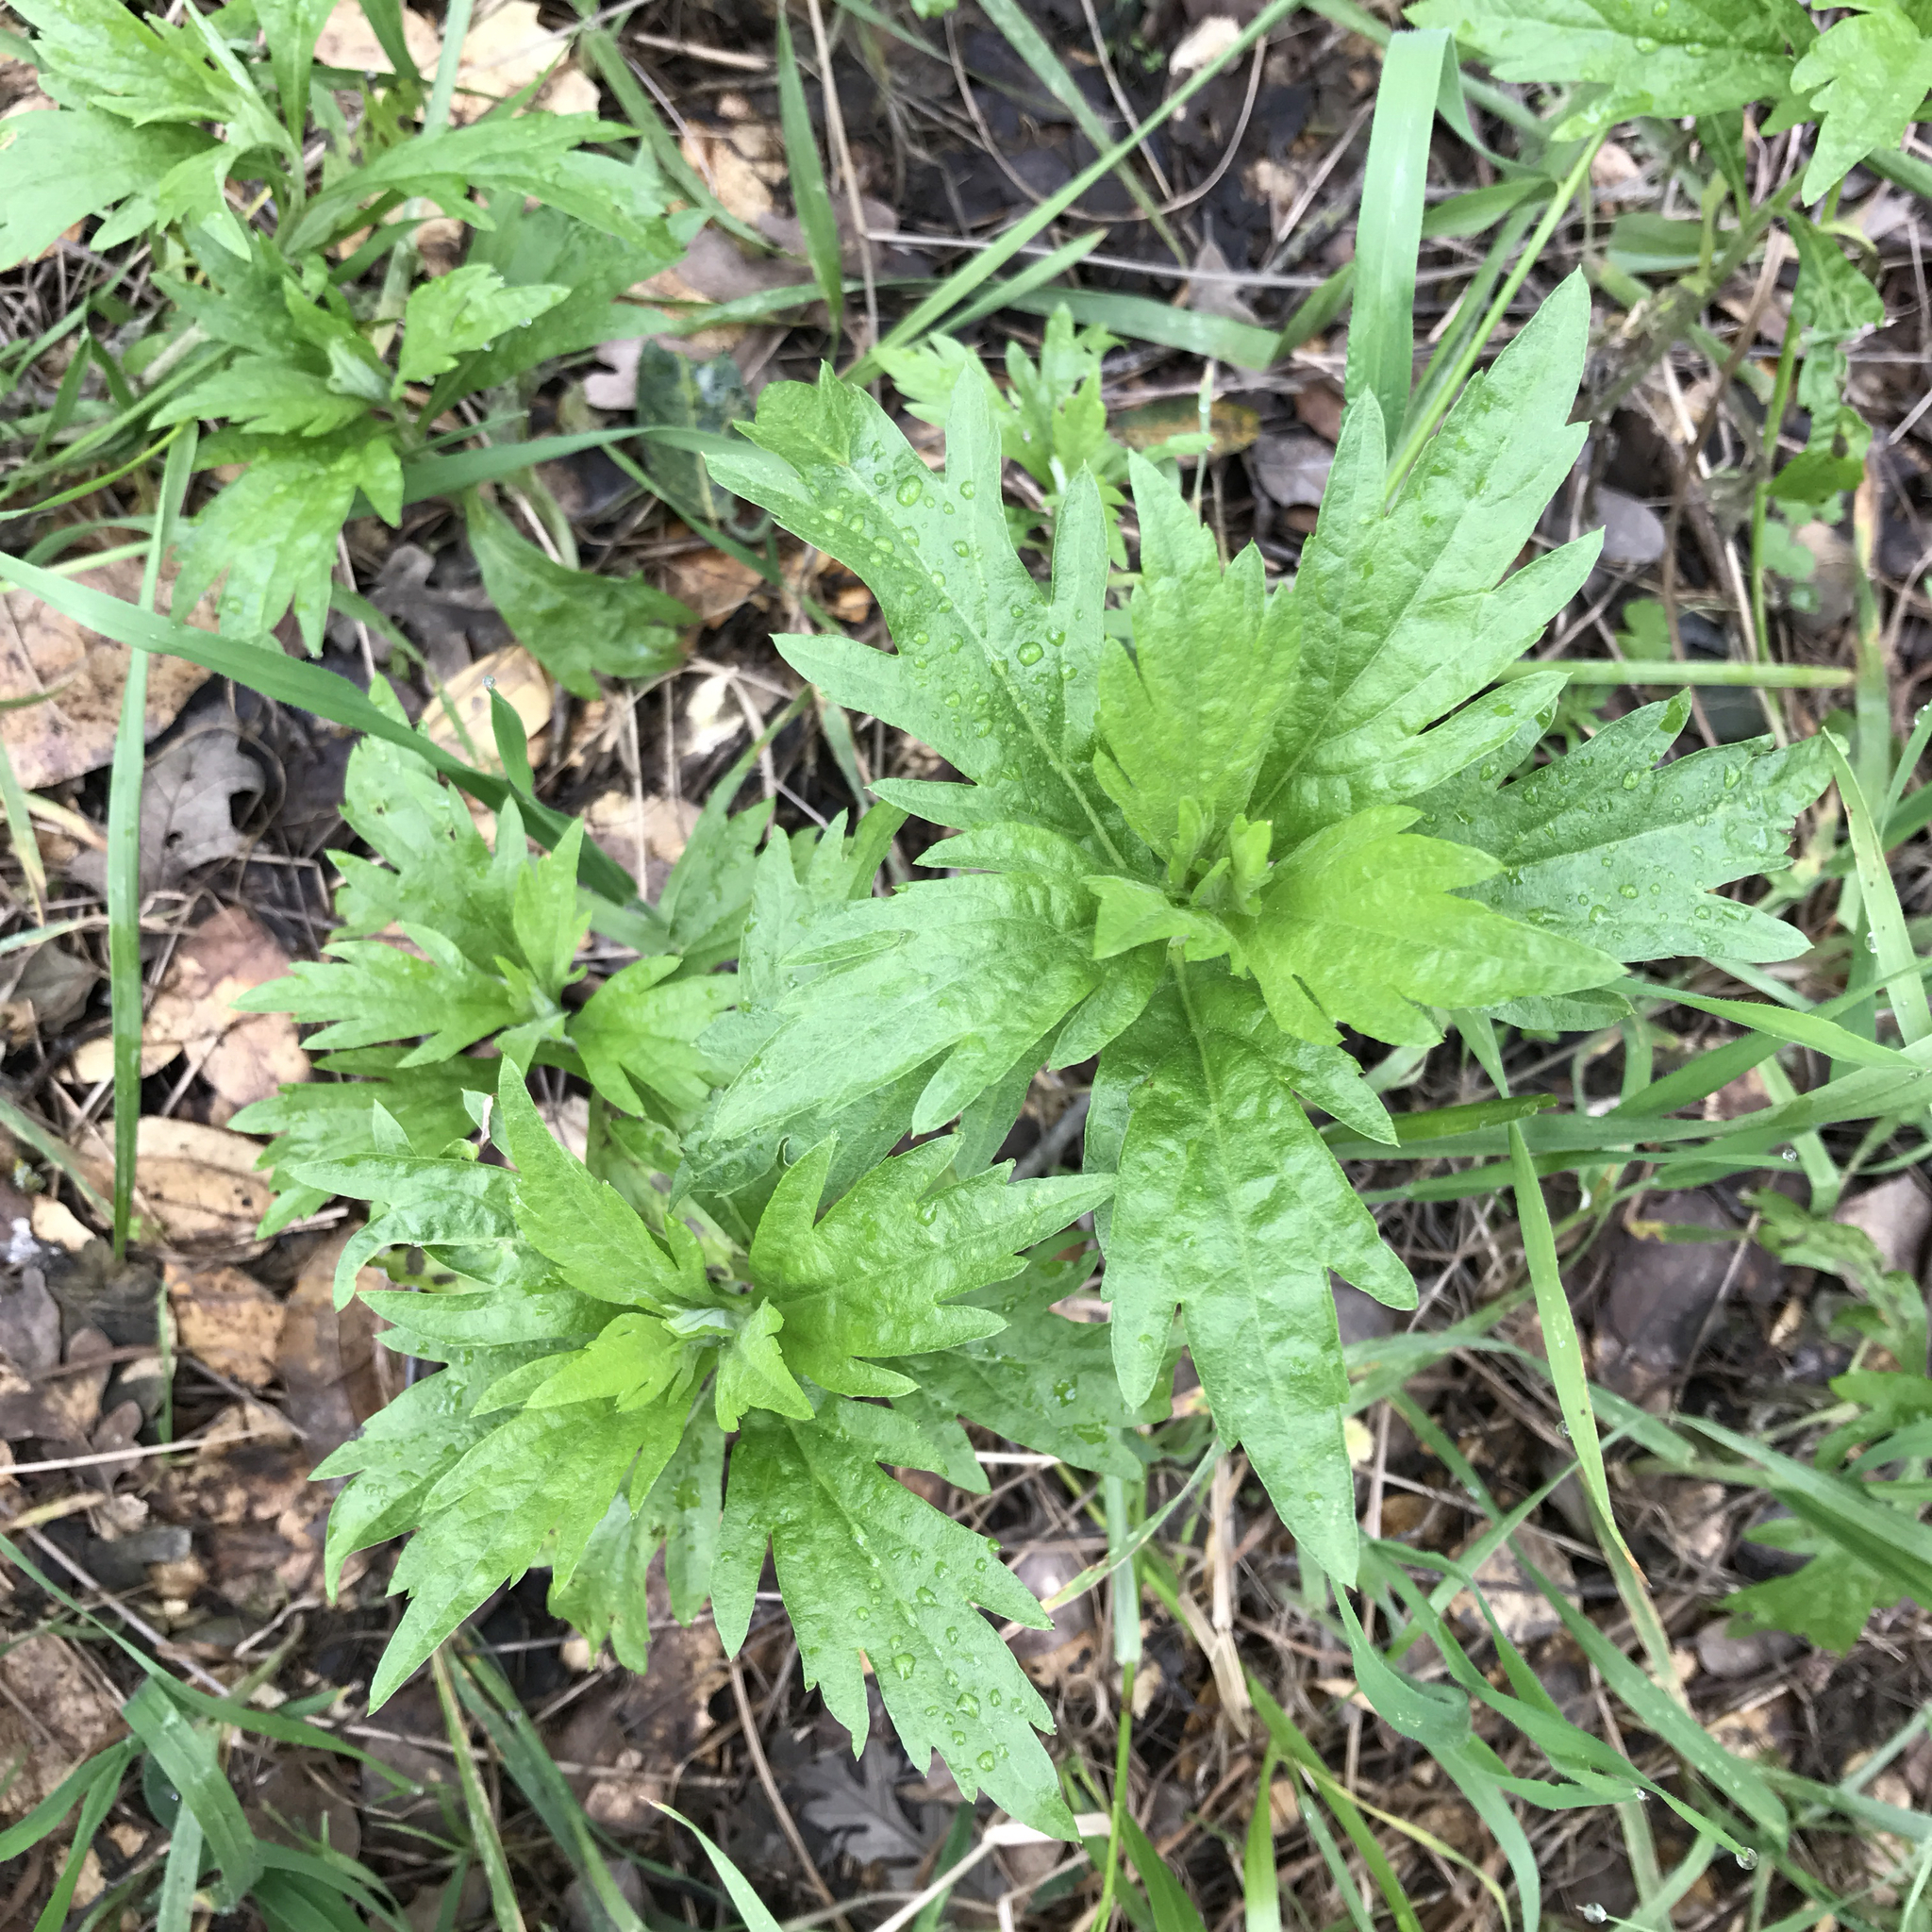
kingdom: Plantae
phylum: Tracheophyta
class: Magnoliopsida
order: Asterales
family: Asteraceae
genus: Artemisia
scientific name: Artemisia douglasiana
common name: Northwest mugwort
